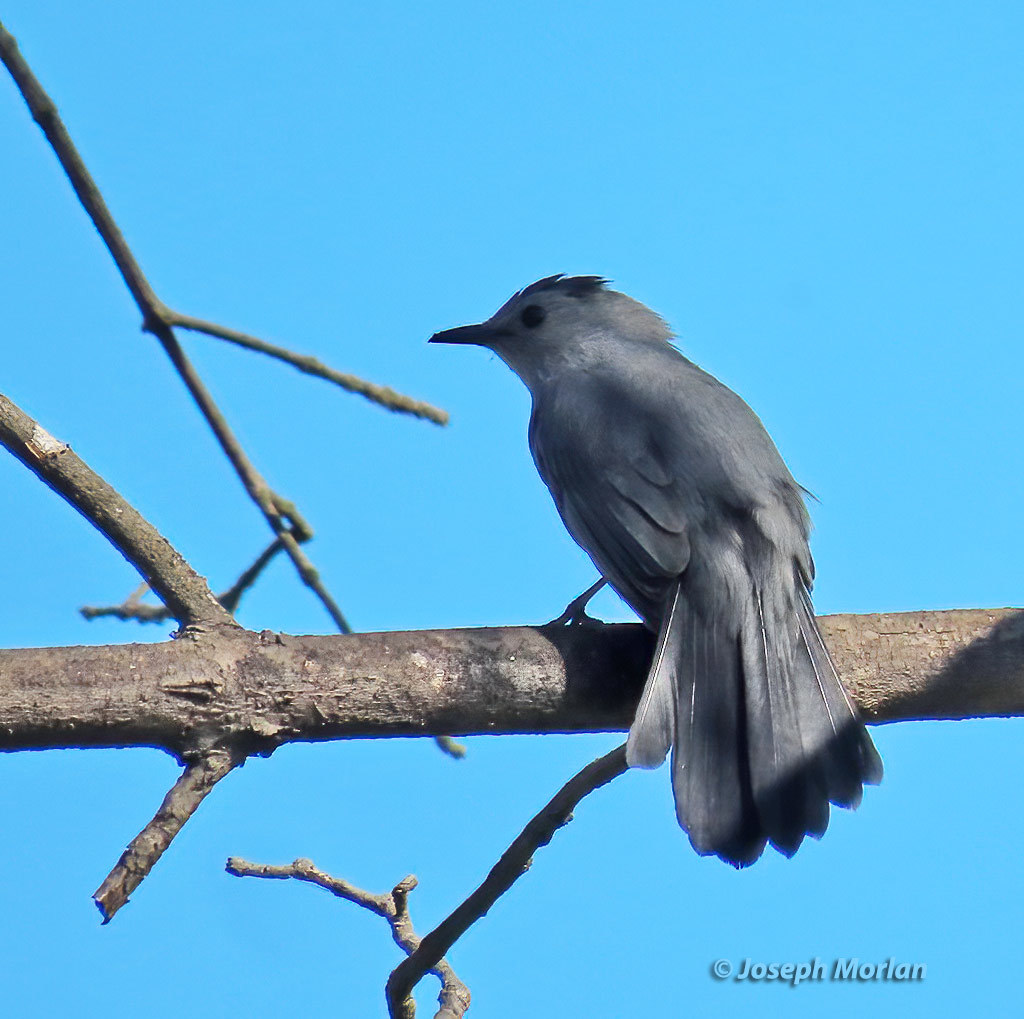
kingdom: Animalia
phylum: Chordata
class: Aves
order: Passeriformes
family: Mimidae
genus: Dumetella
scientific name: Dumetella carolinensis
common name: Gray catbird
